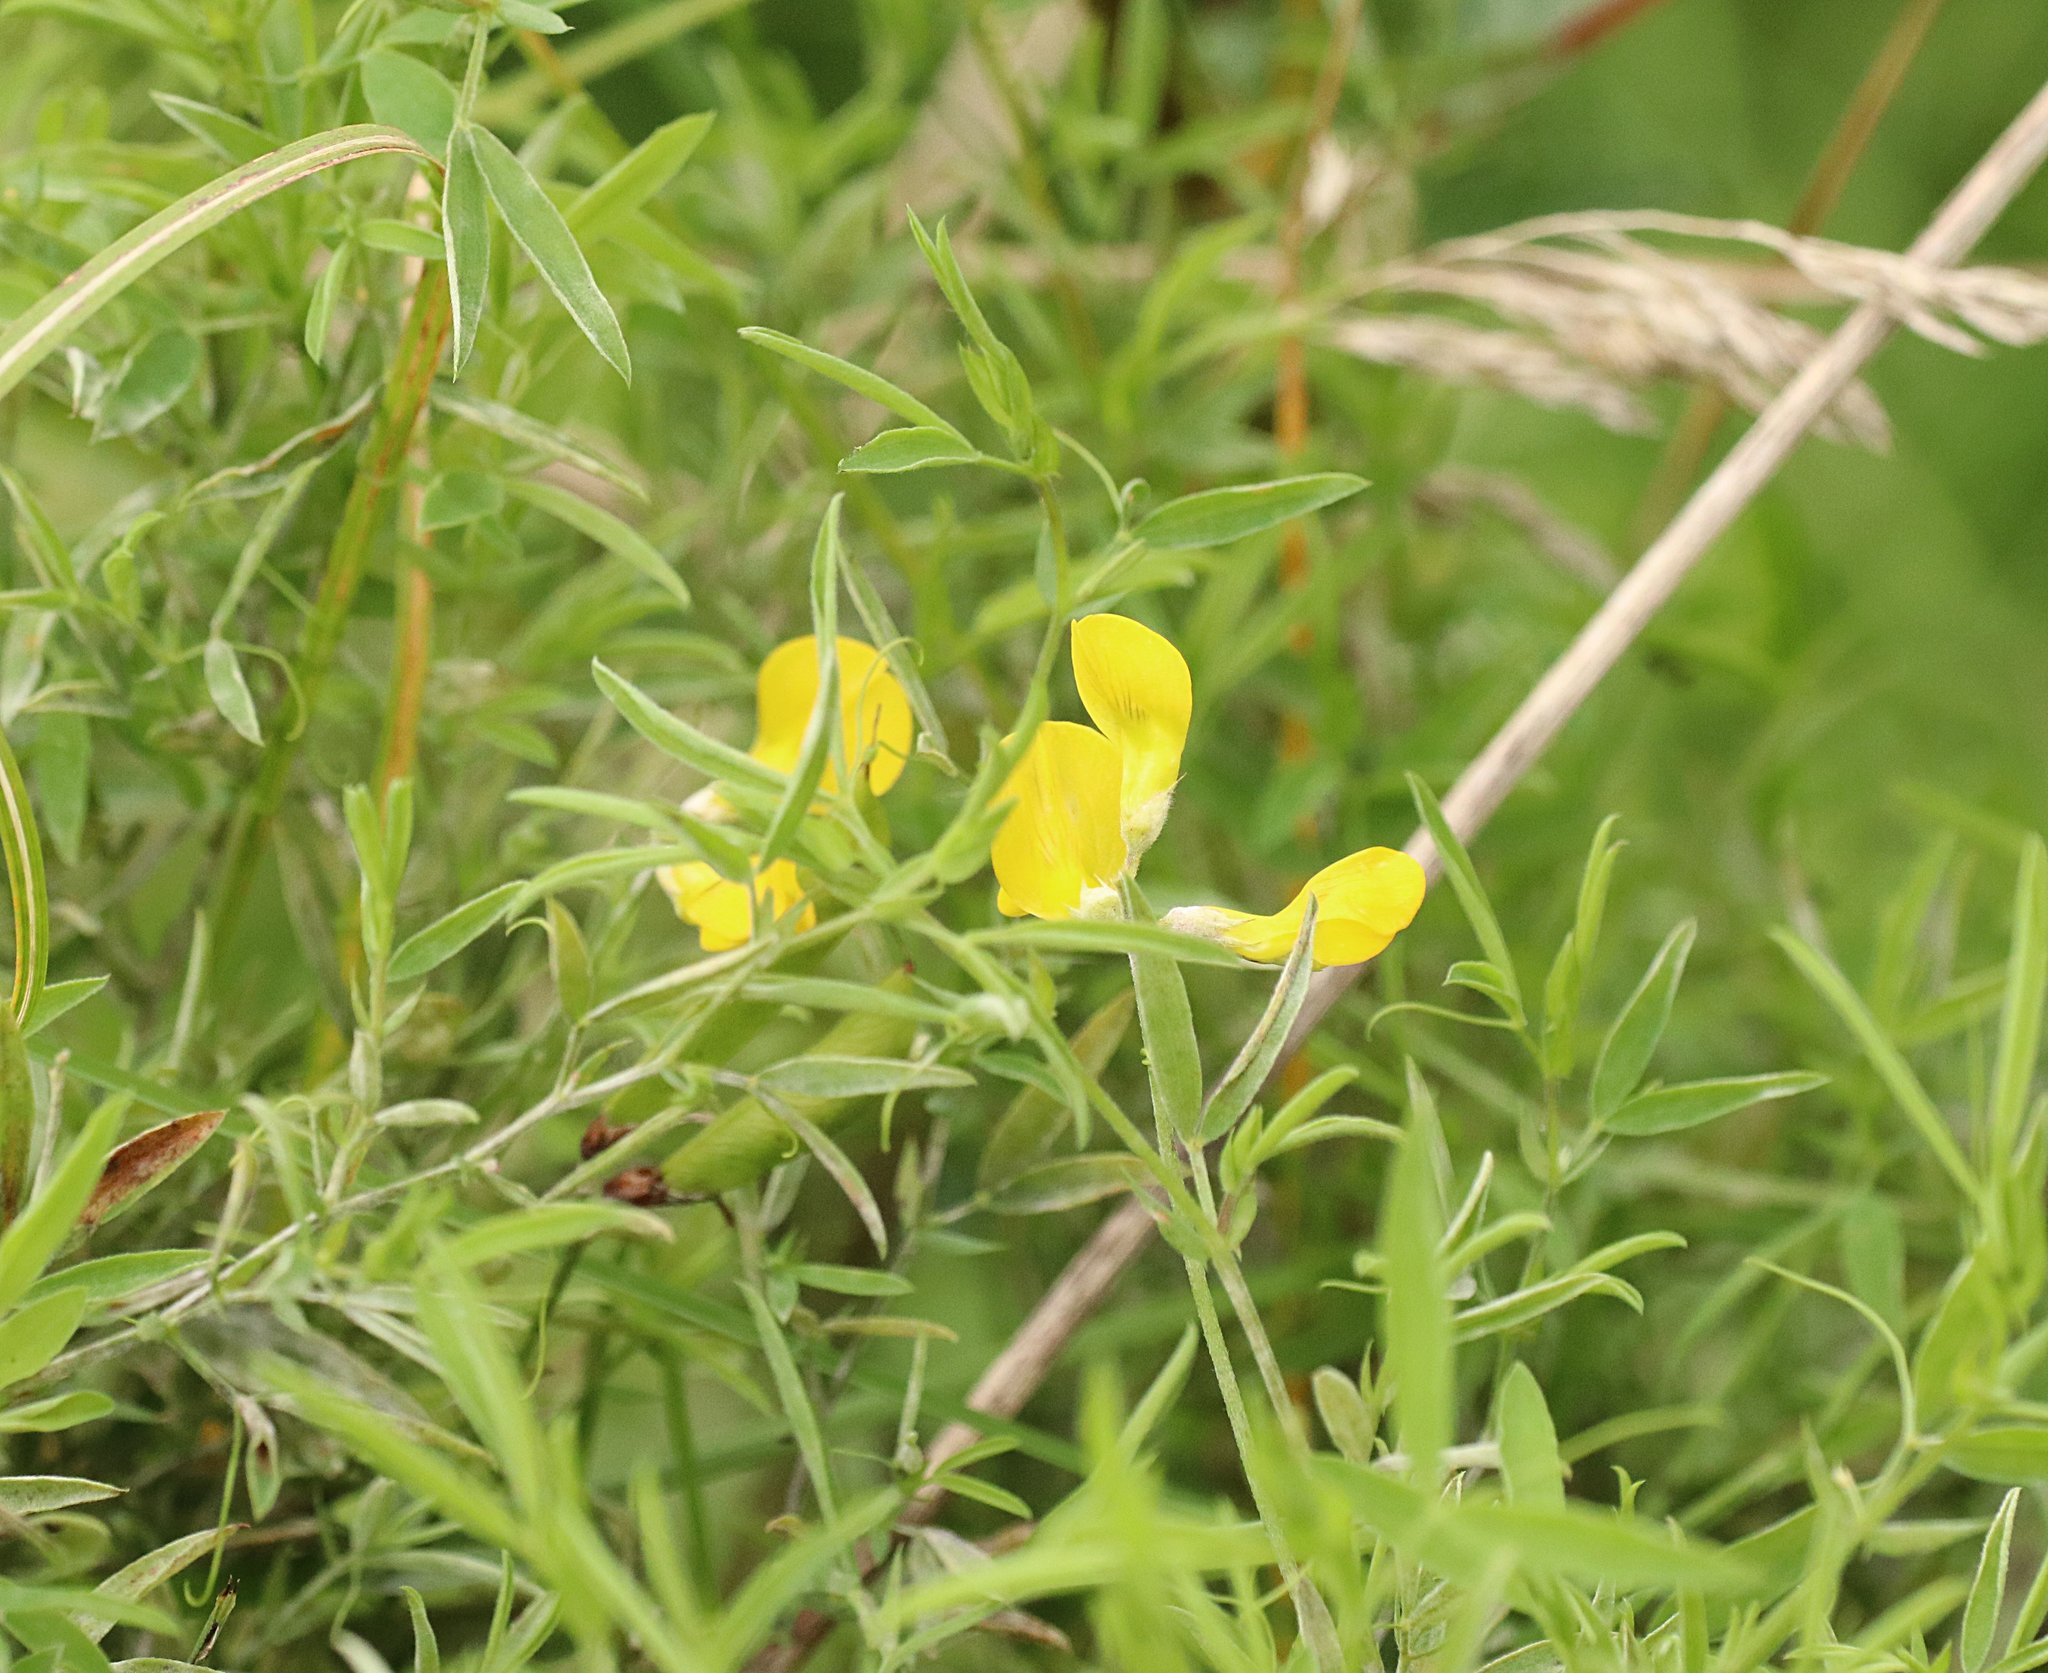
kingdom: Plantae
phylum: Tracheophyta
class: Magnoliopsida
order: Fabales
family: Fabaceae
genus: Lathyrus
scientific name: Lathyrus pratensis
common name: Meadow vetchling
